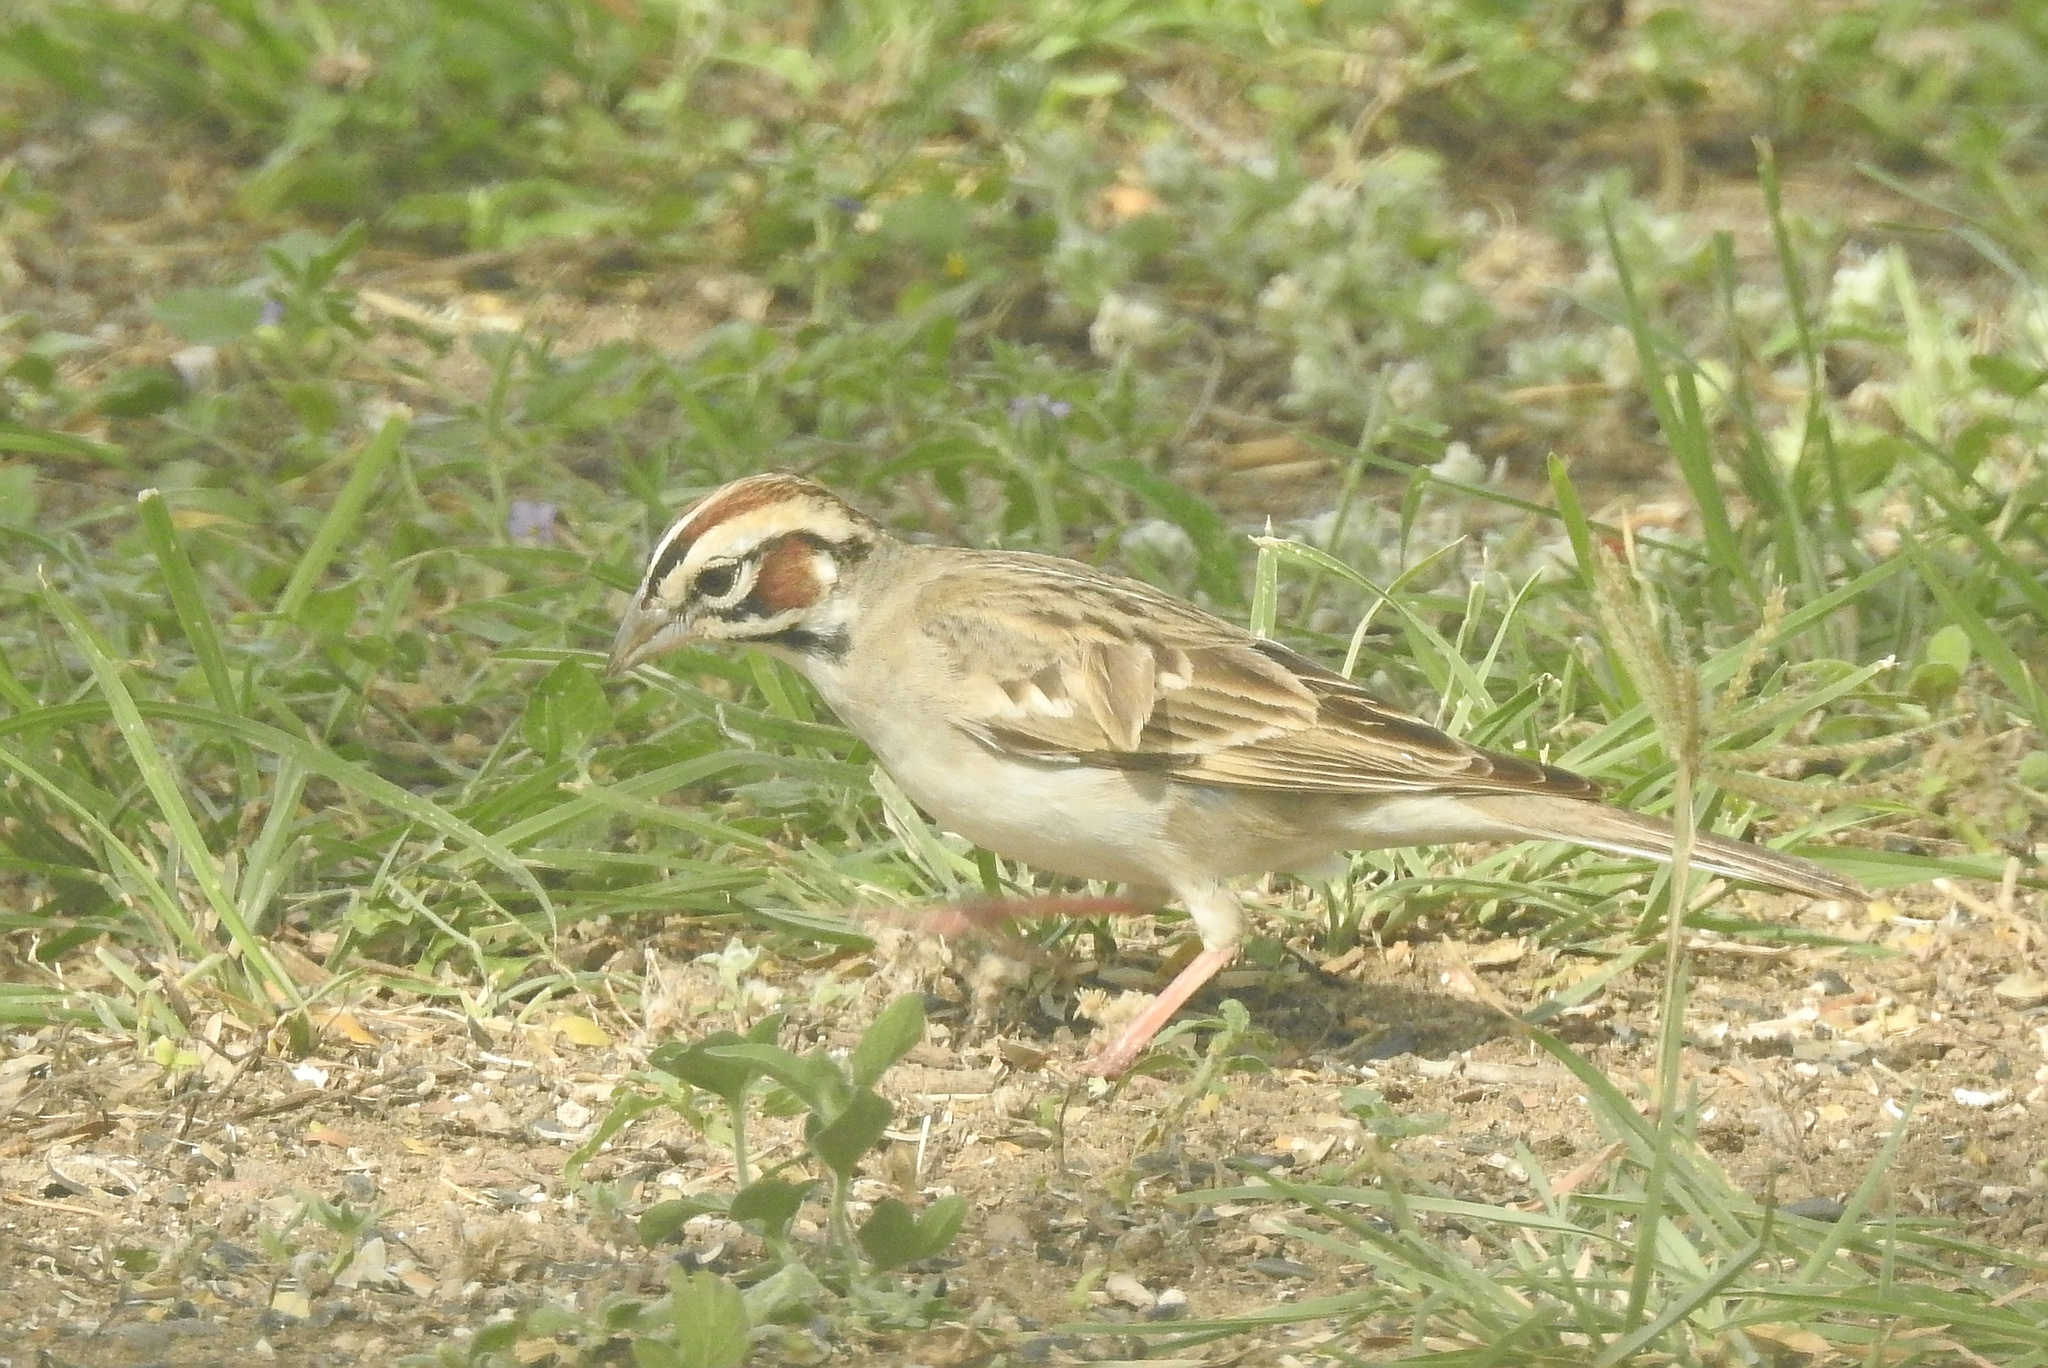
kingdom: Animalia
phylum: Chordata
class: Aves
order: Passeriformes
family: Passerellidae
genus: Chondestes
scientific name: Chondestes grammacus
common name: Lark sparrow
